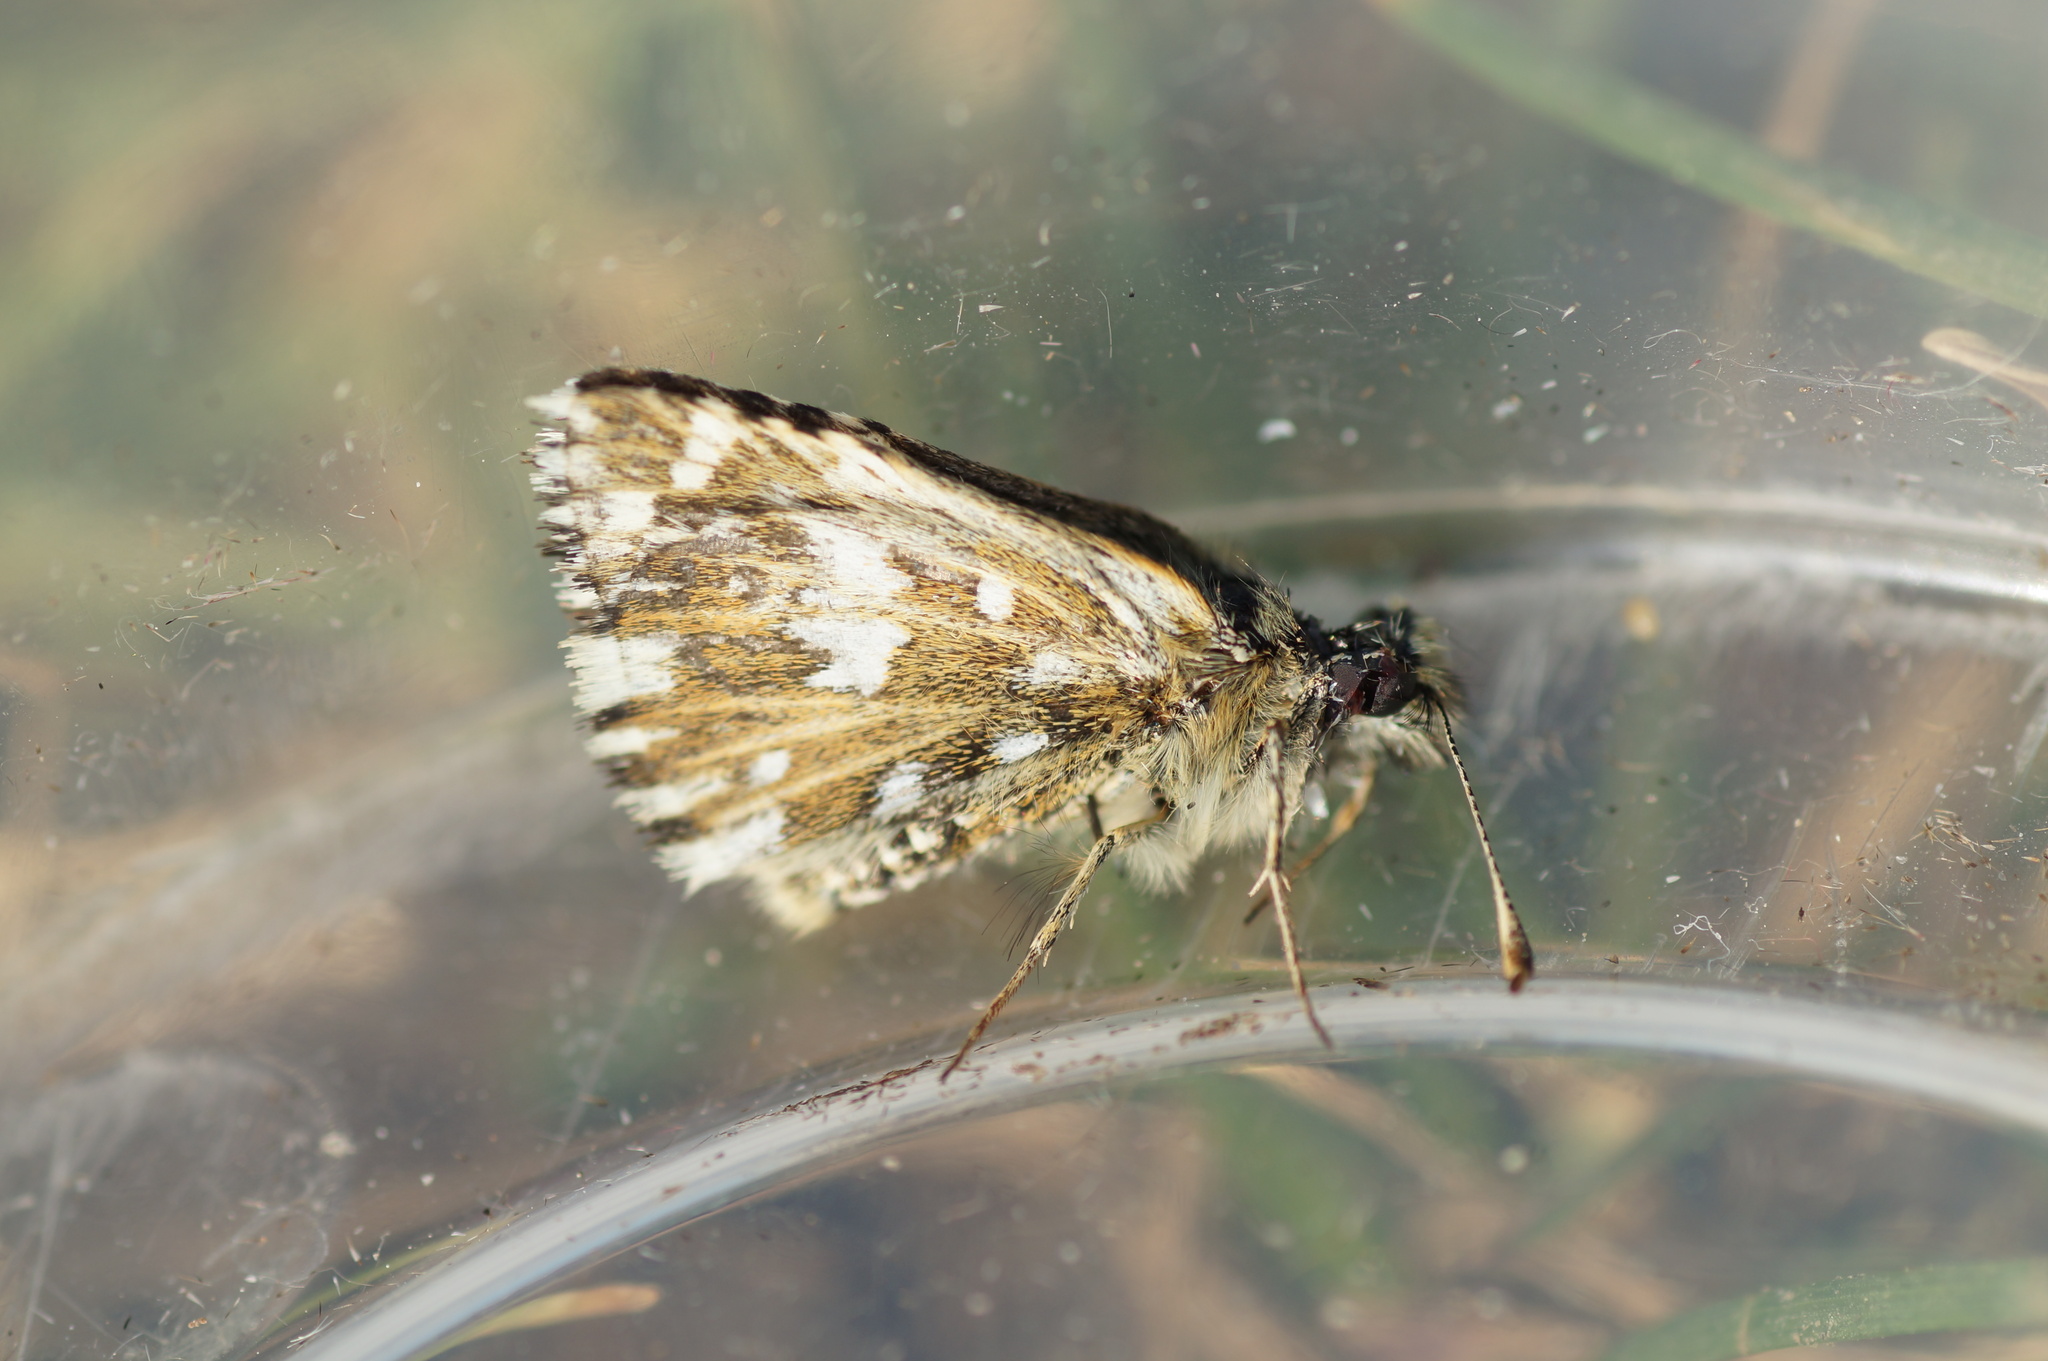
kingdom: Animalia
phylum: Arthropoda
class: Insecta
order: Lepidoptera
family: Hesperiidae
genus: Pyrgus
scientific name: Pyrgus malvae
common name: Grizzled skipper
